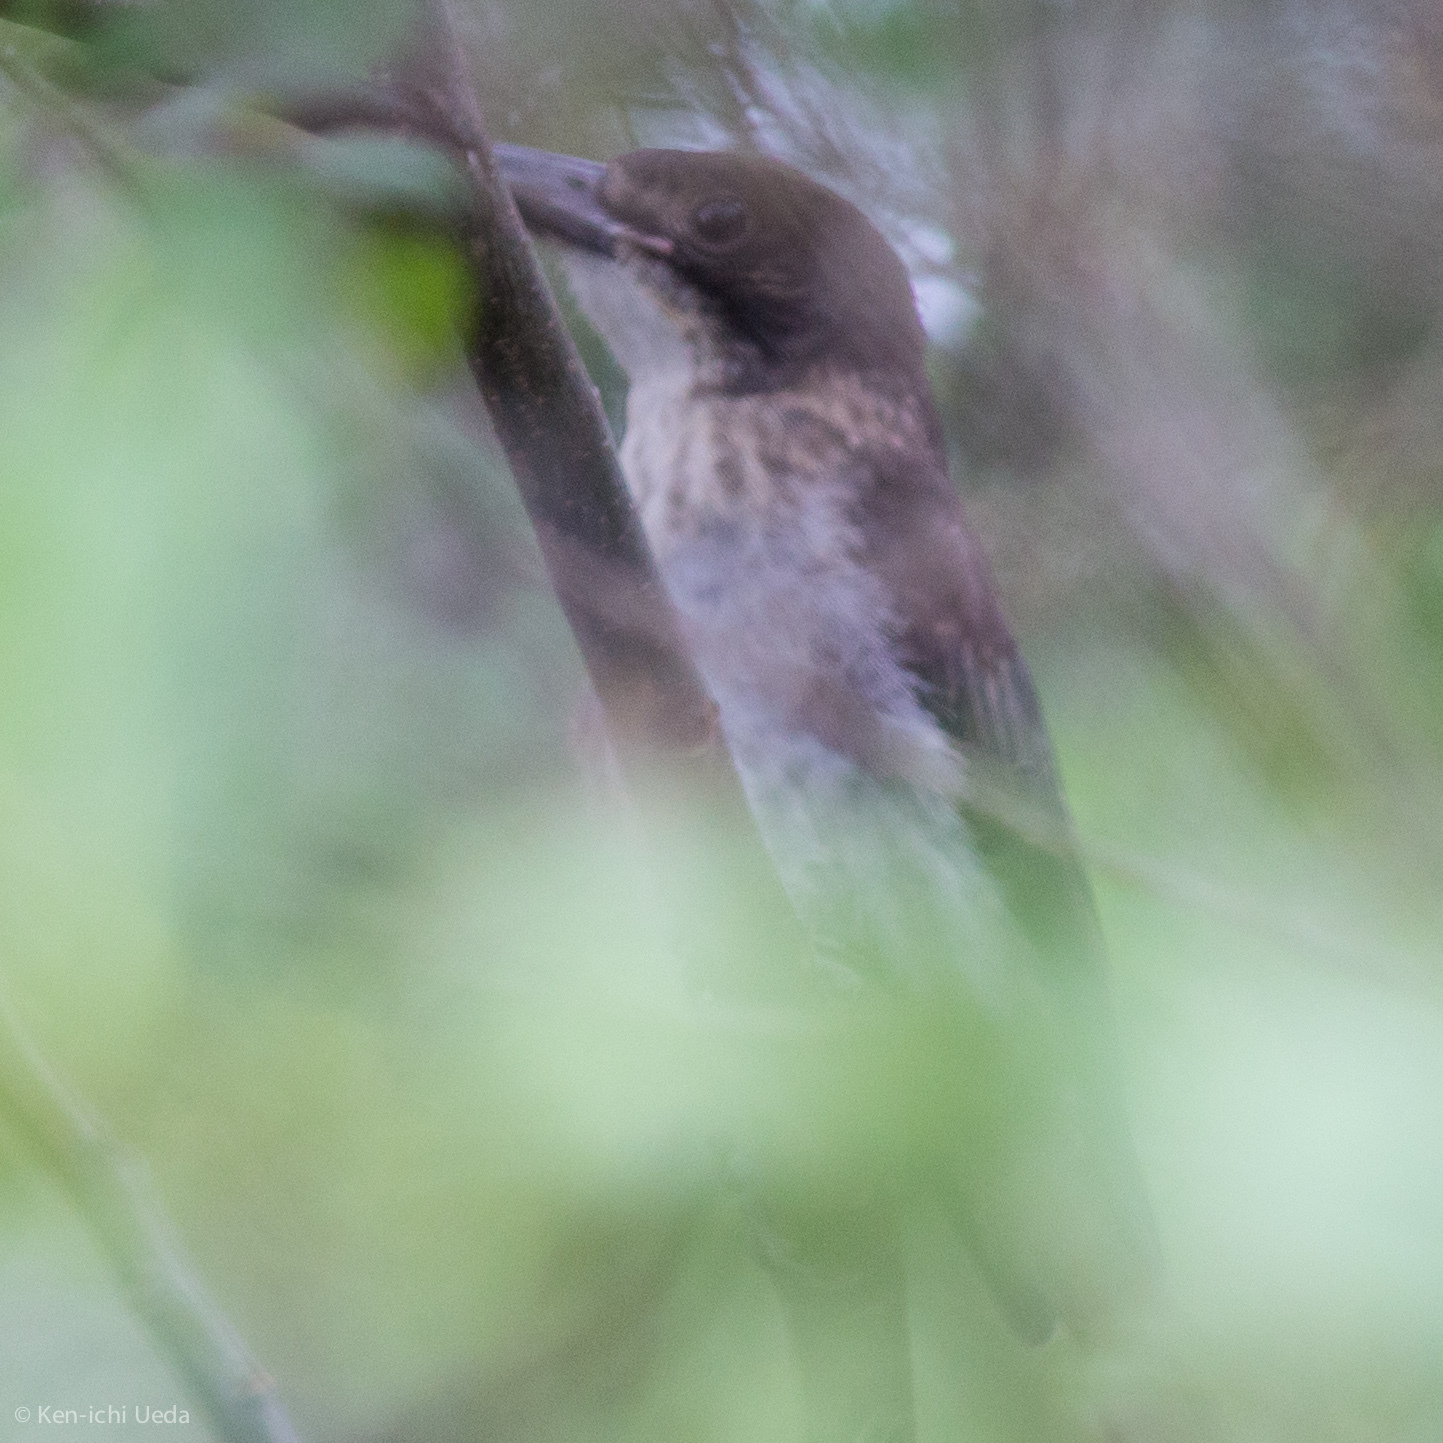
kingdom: Animalia
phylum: Chordata
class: Aves
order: Passeriformes
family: Cracticidae
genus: Cracticus
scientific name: Cracticus torquatus
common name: Grey butcherbird
